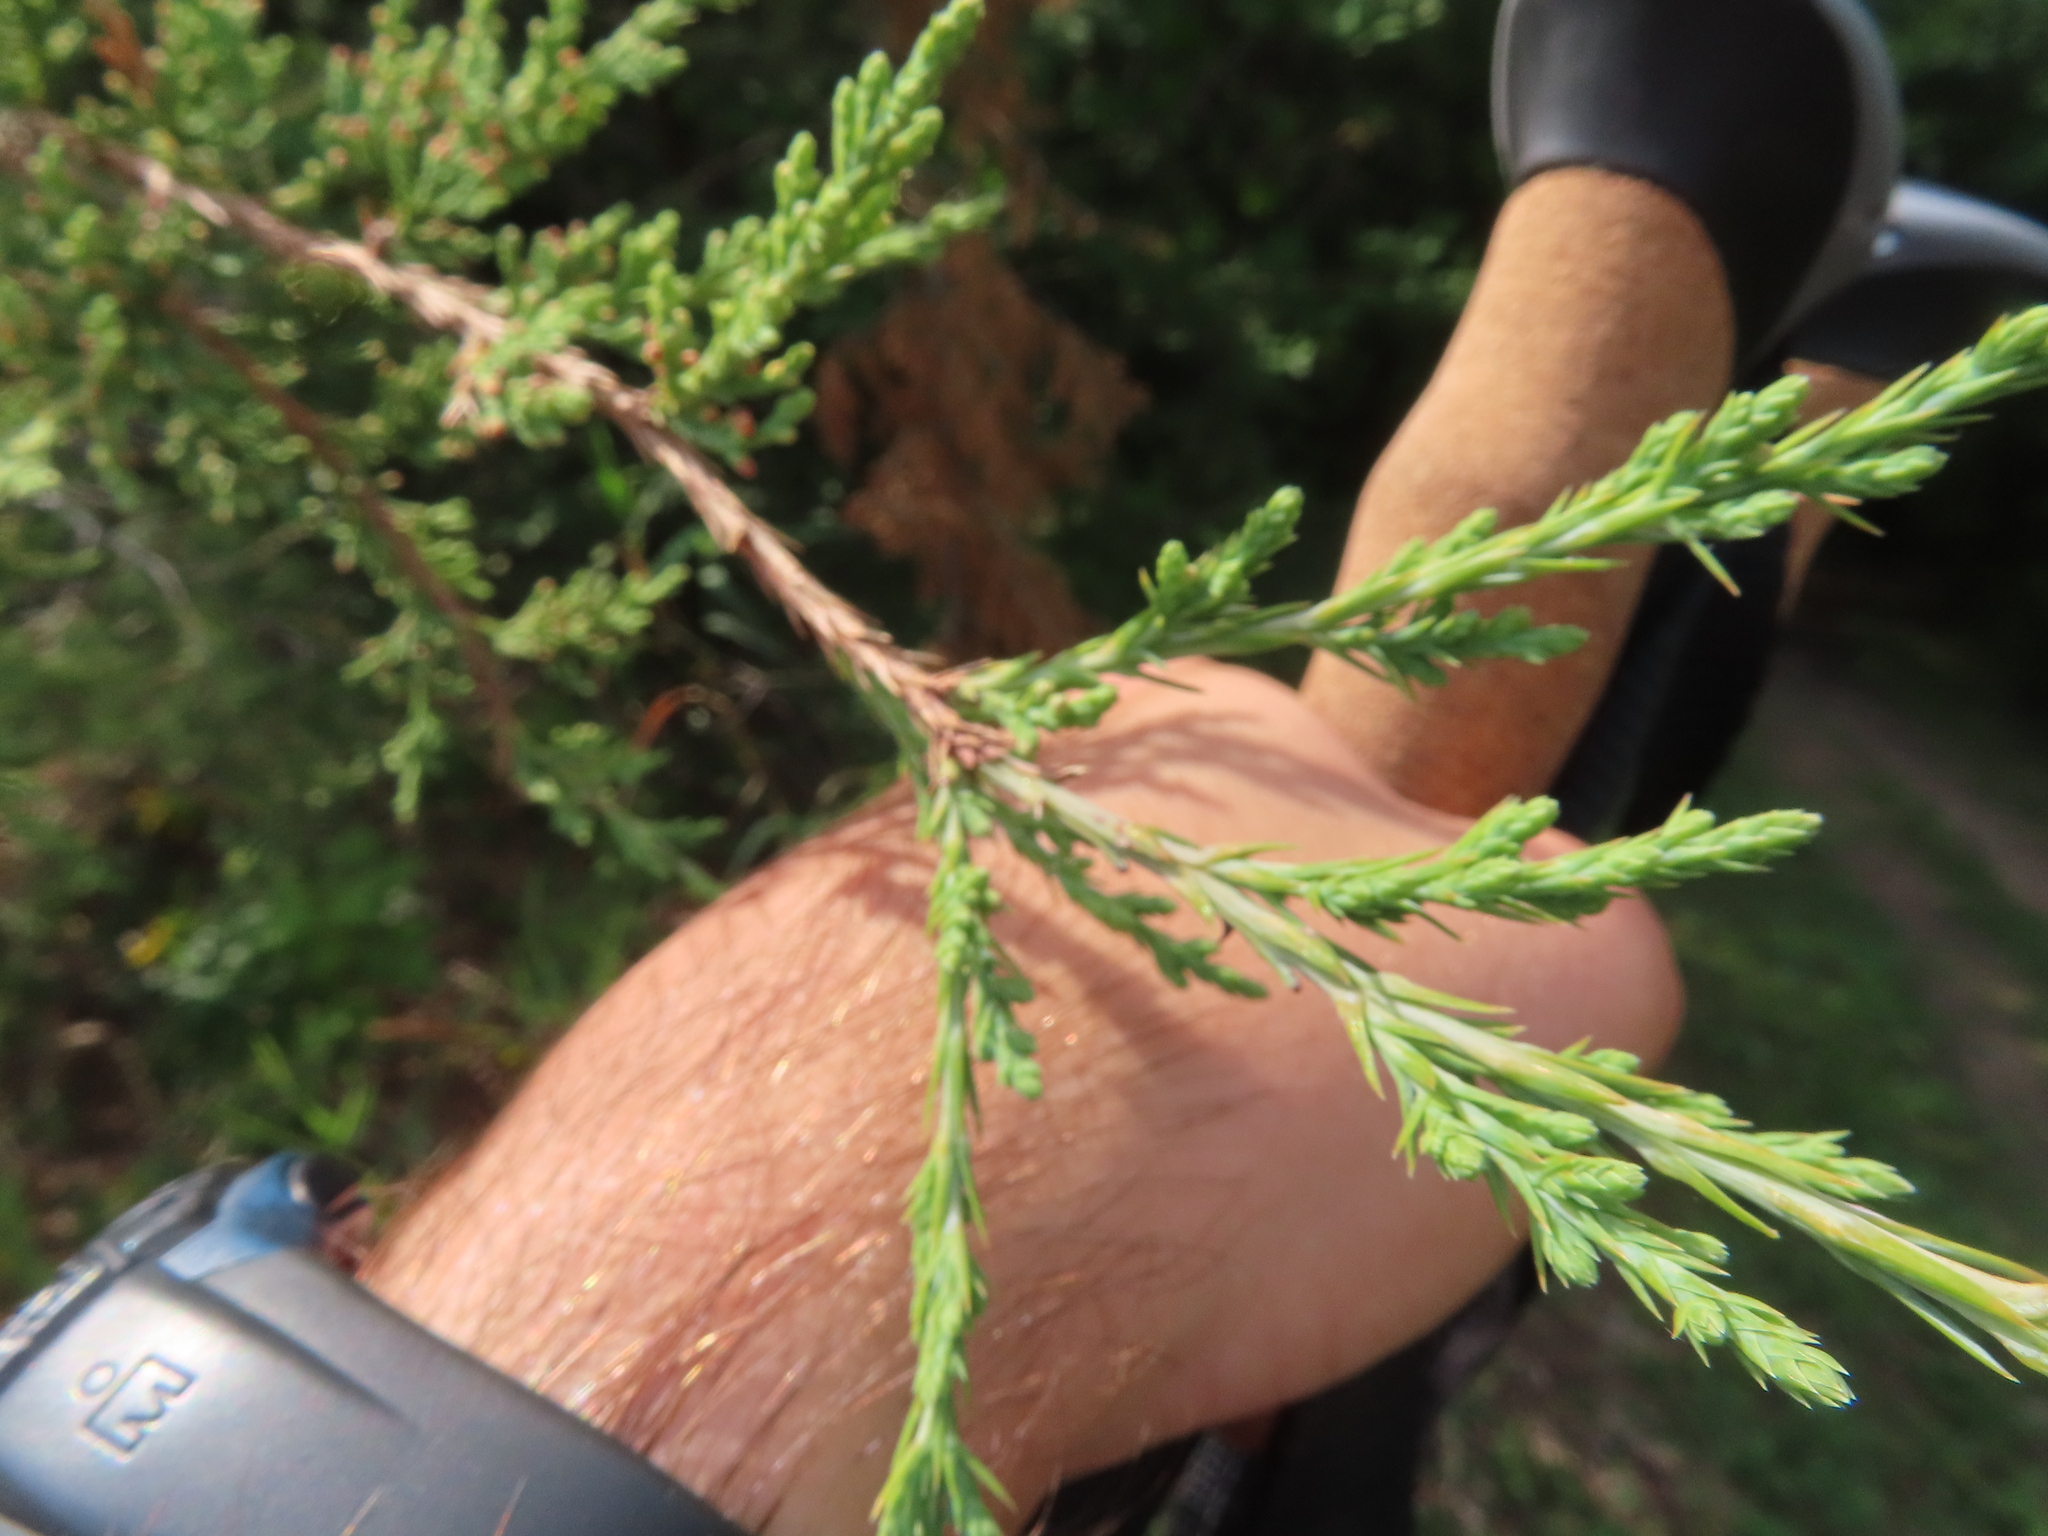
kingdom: Plantae
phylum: Tracheophyta
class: Pinopsida
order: Pinales
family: Cupressaceae
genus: Juniperus
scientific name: Juniperus virginiana
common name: Red juniper
